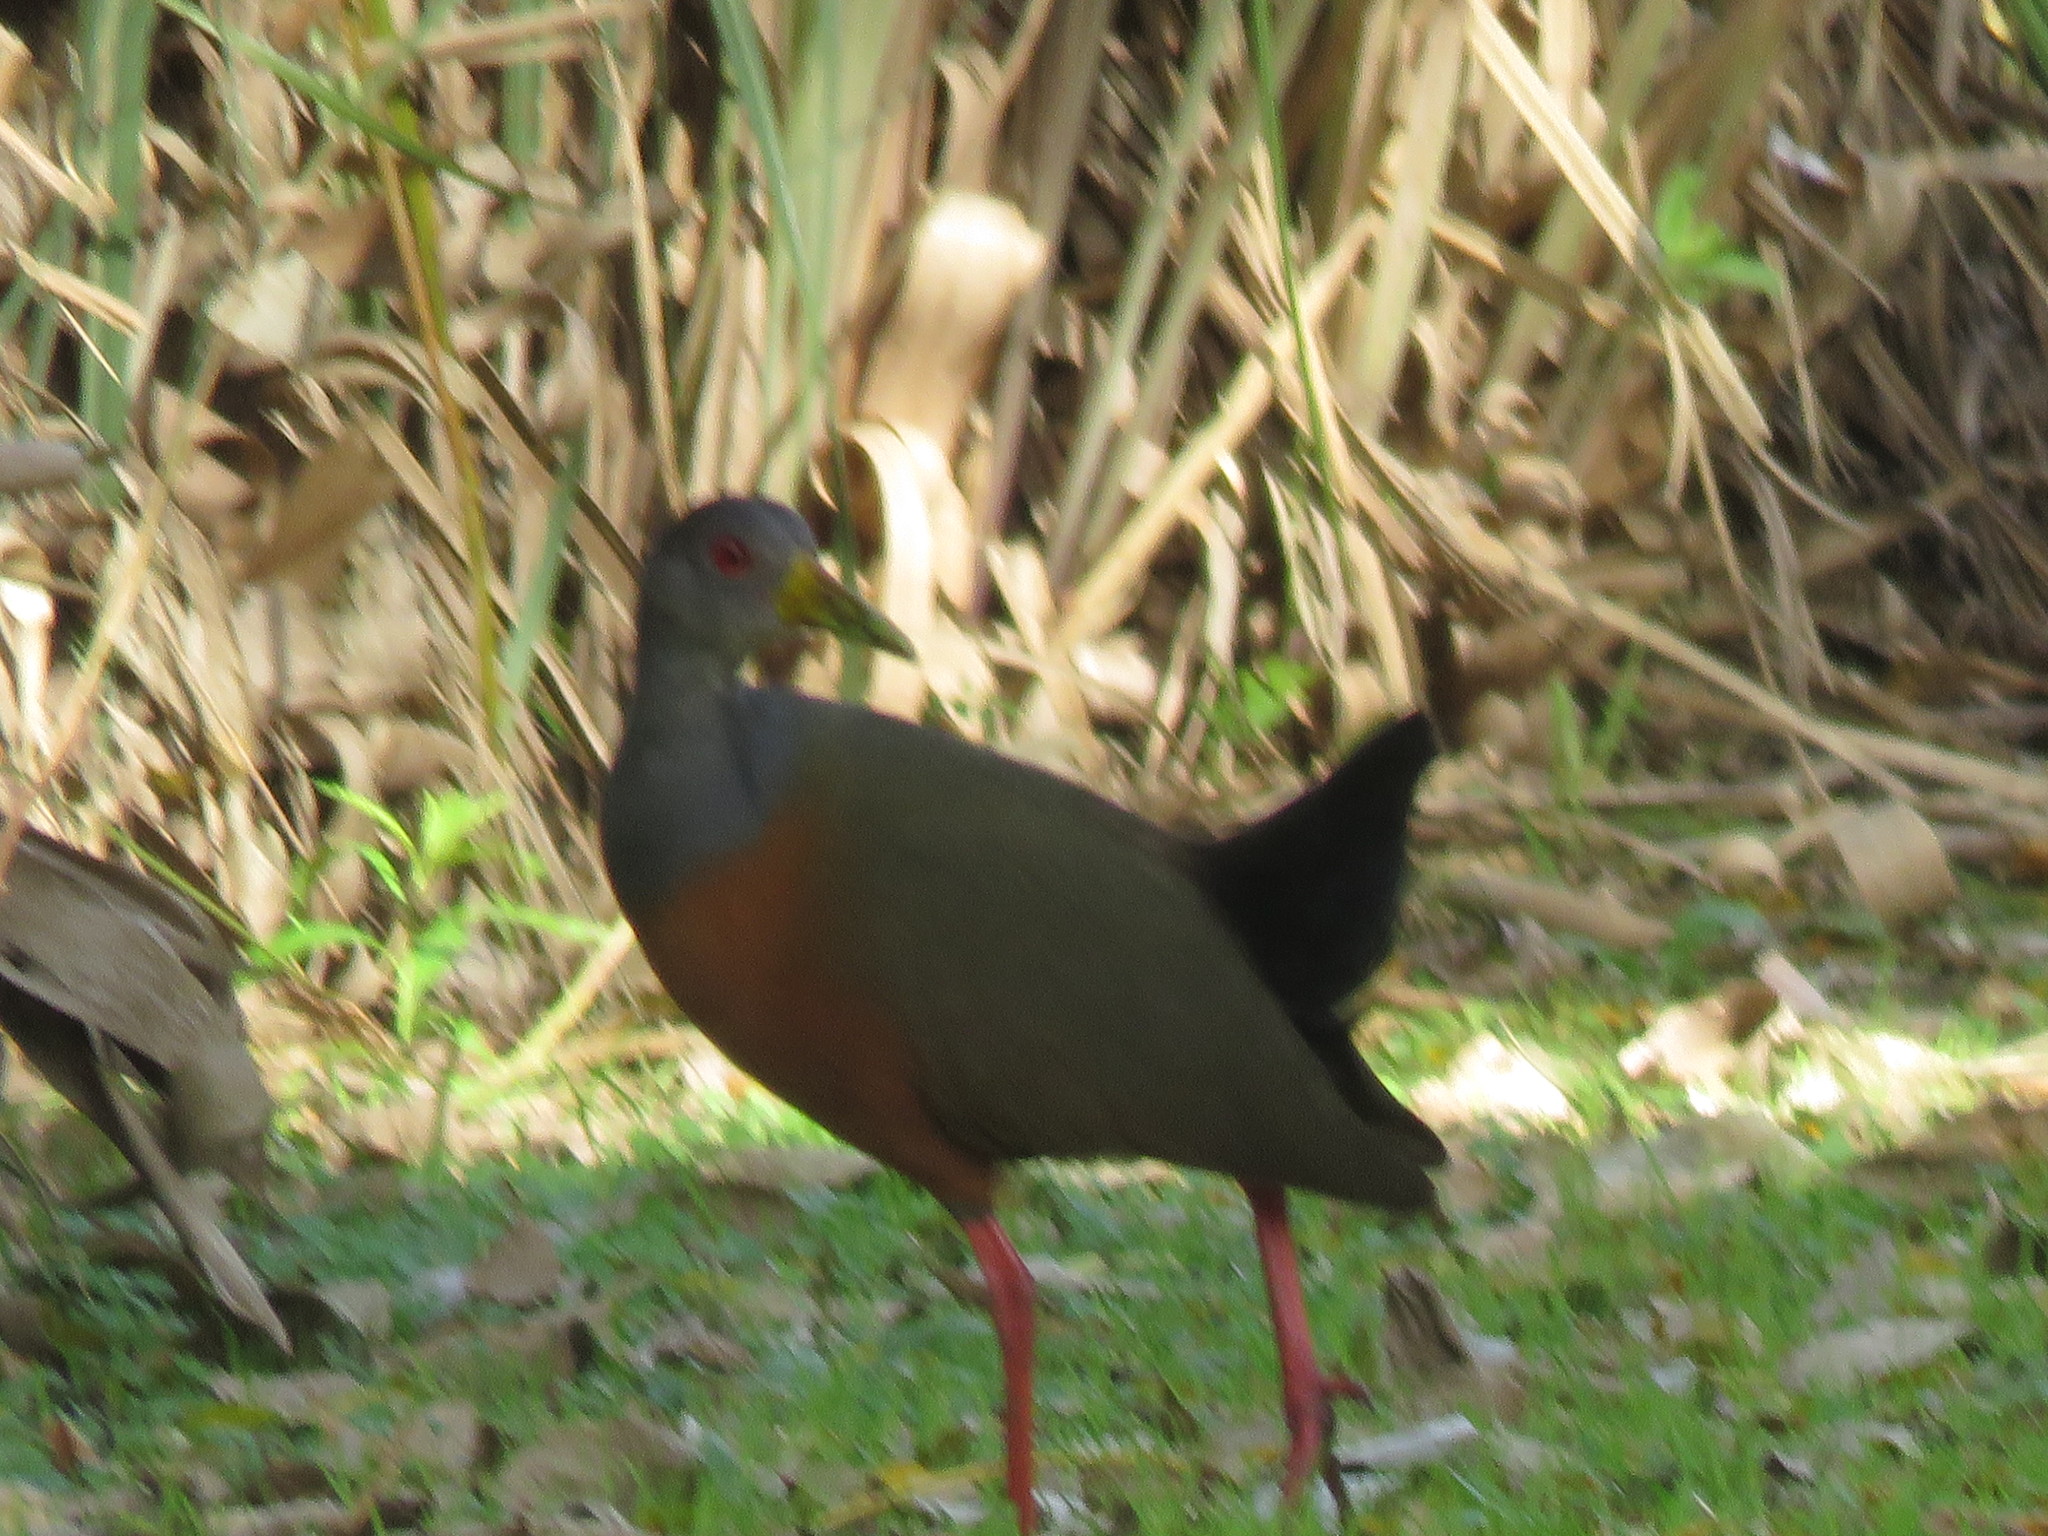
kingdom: Animalia
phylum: Chordata
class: Aves
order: Gruiformes
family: Rallidae
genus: Aramides
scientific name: Aramides cajanea
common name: Gray-necked wood-rail
